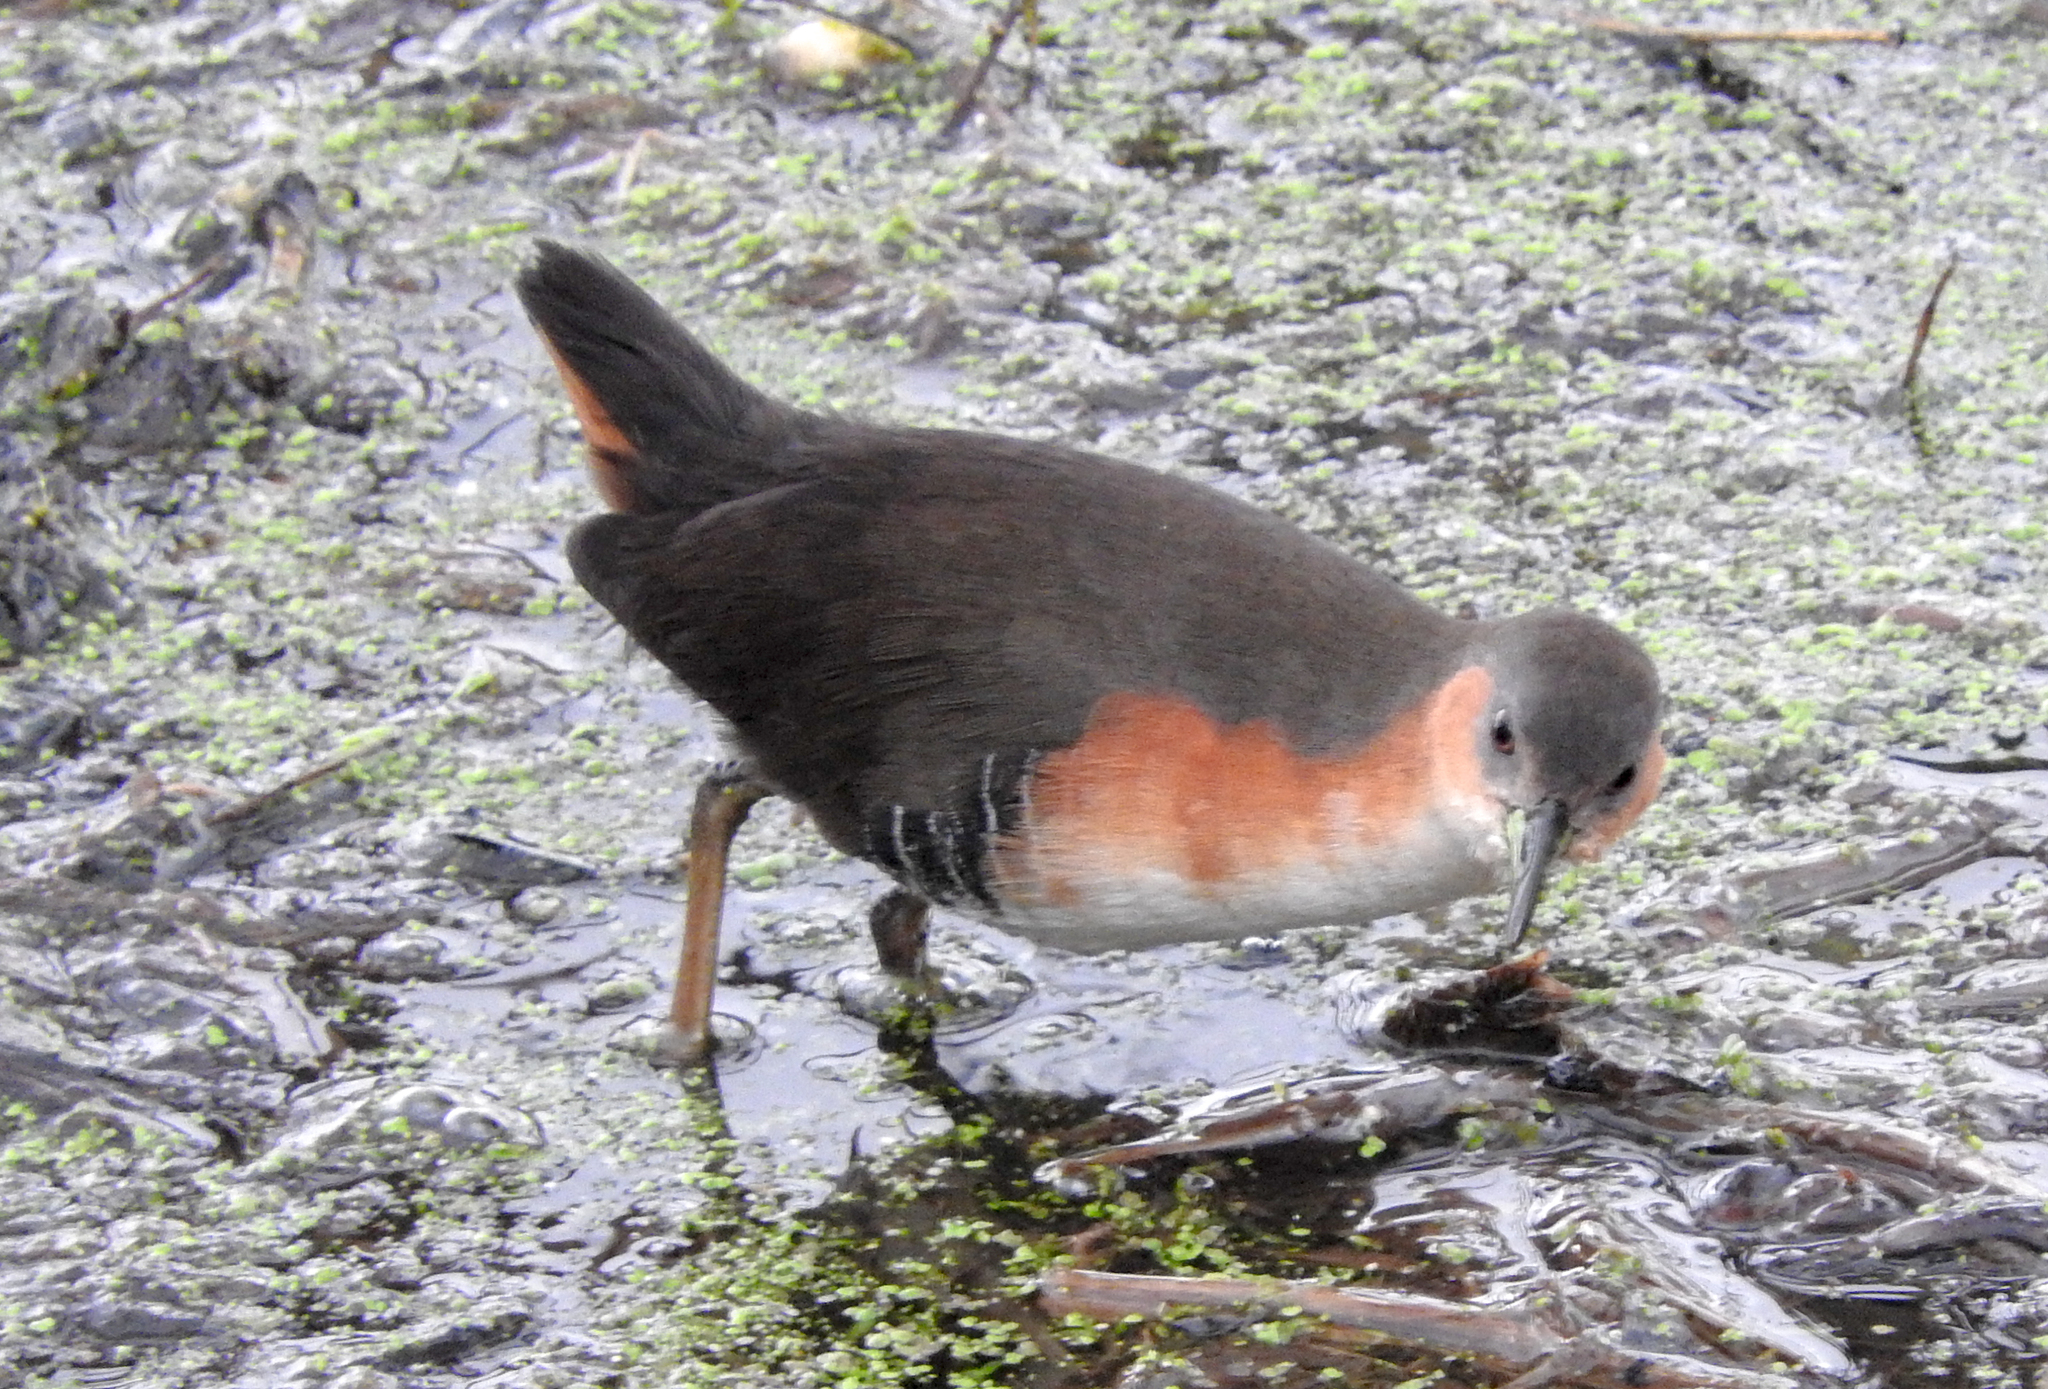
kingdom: Animalia
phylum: Chordata
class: Aves
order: Gruiformes
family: Rallidae
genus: Laterallus
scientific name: Laterallus melanophaius
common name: Rufous-sided crake
